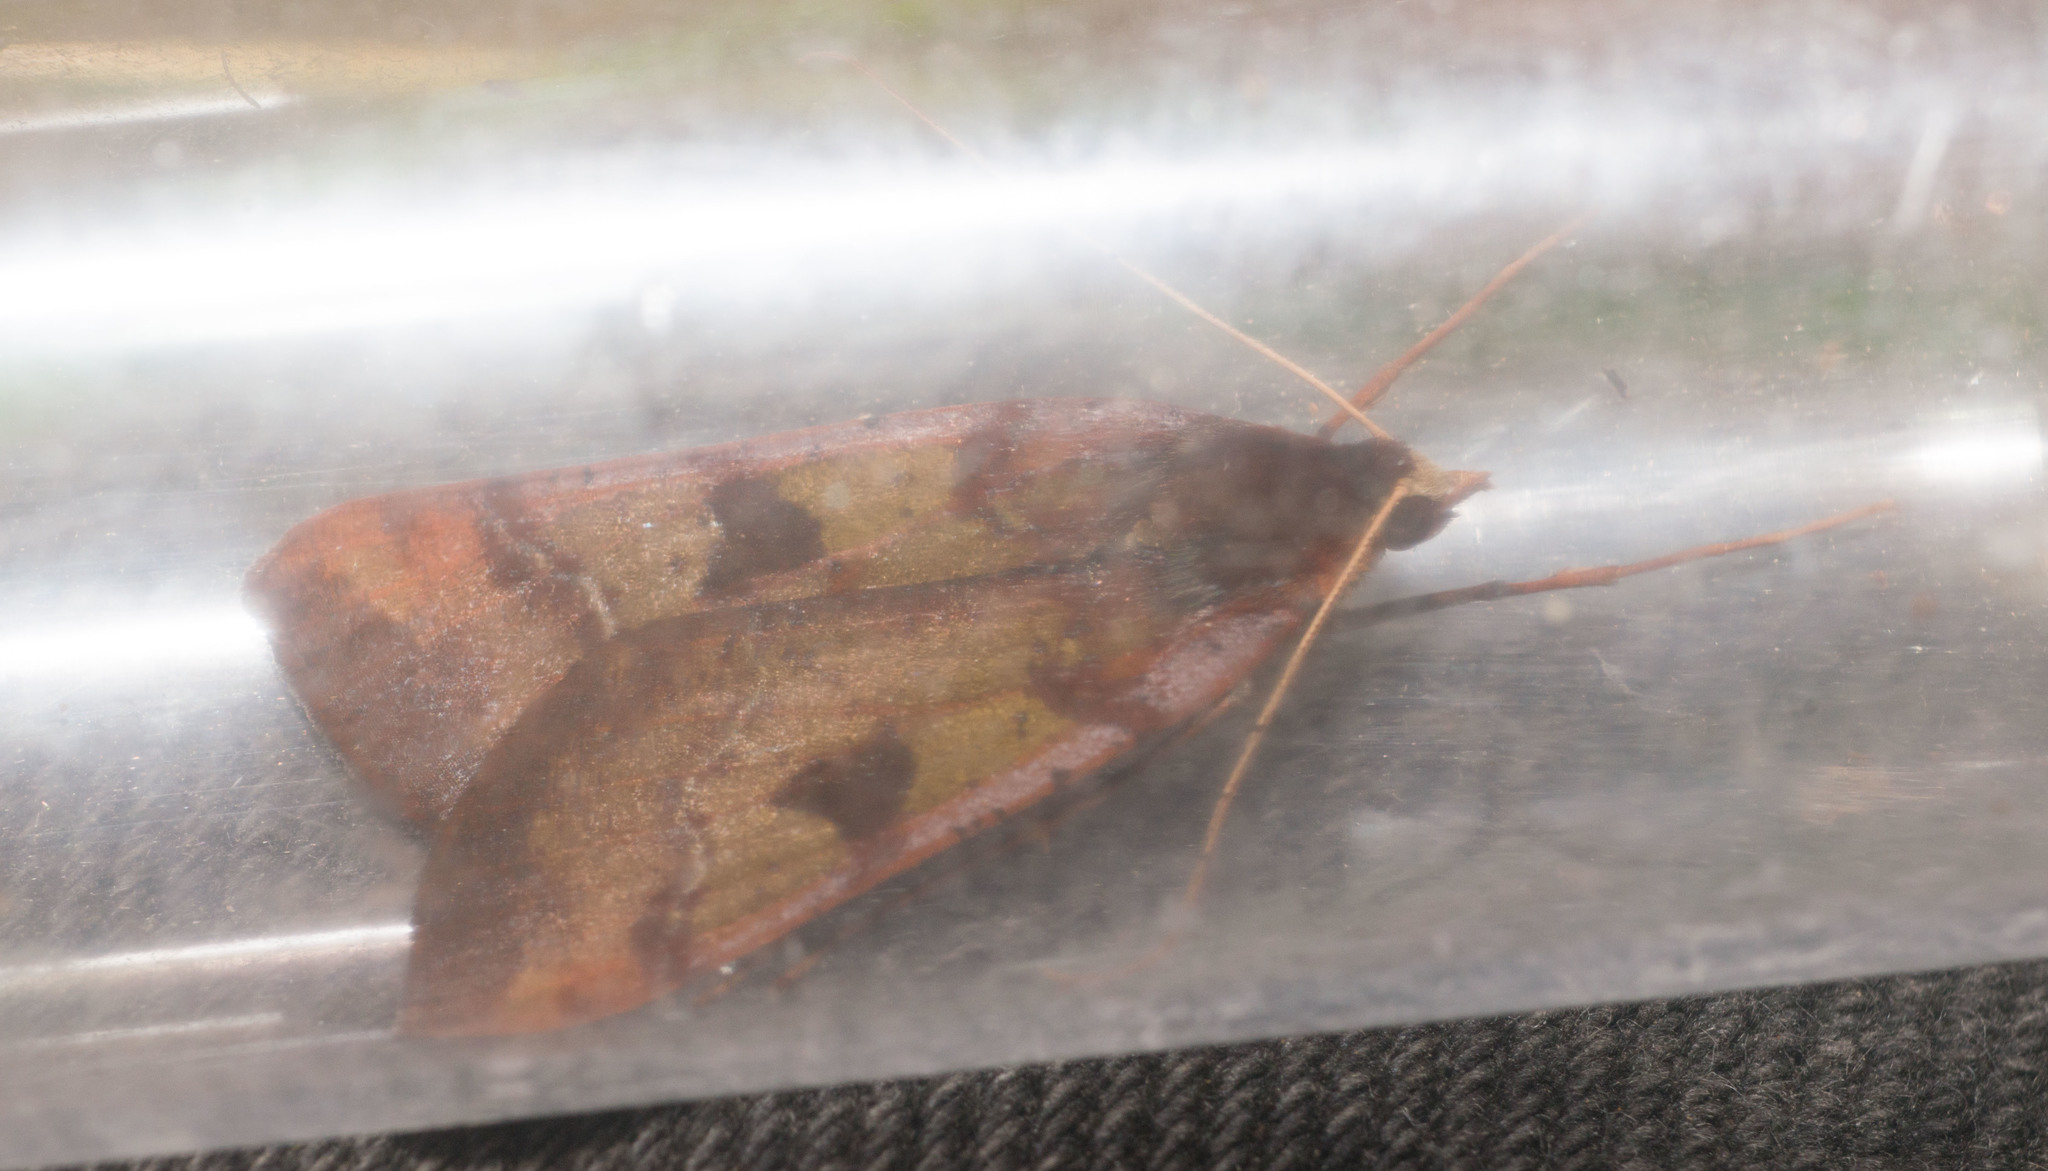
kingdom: Animalia
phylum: Arthropoda
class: Insecta
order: Lepidoptera
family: Geometridae
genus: Scotorythra
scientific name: Scotorythra pachyspila
